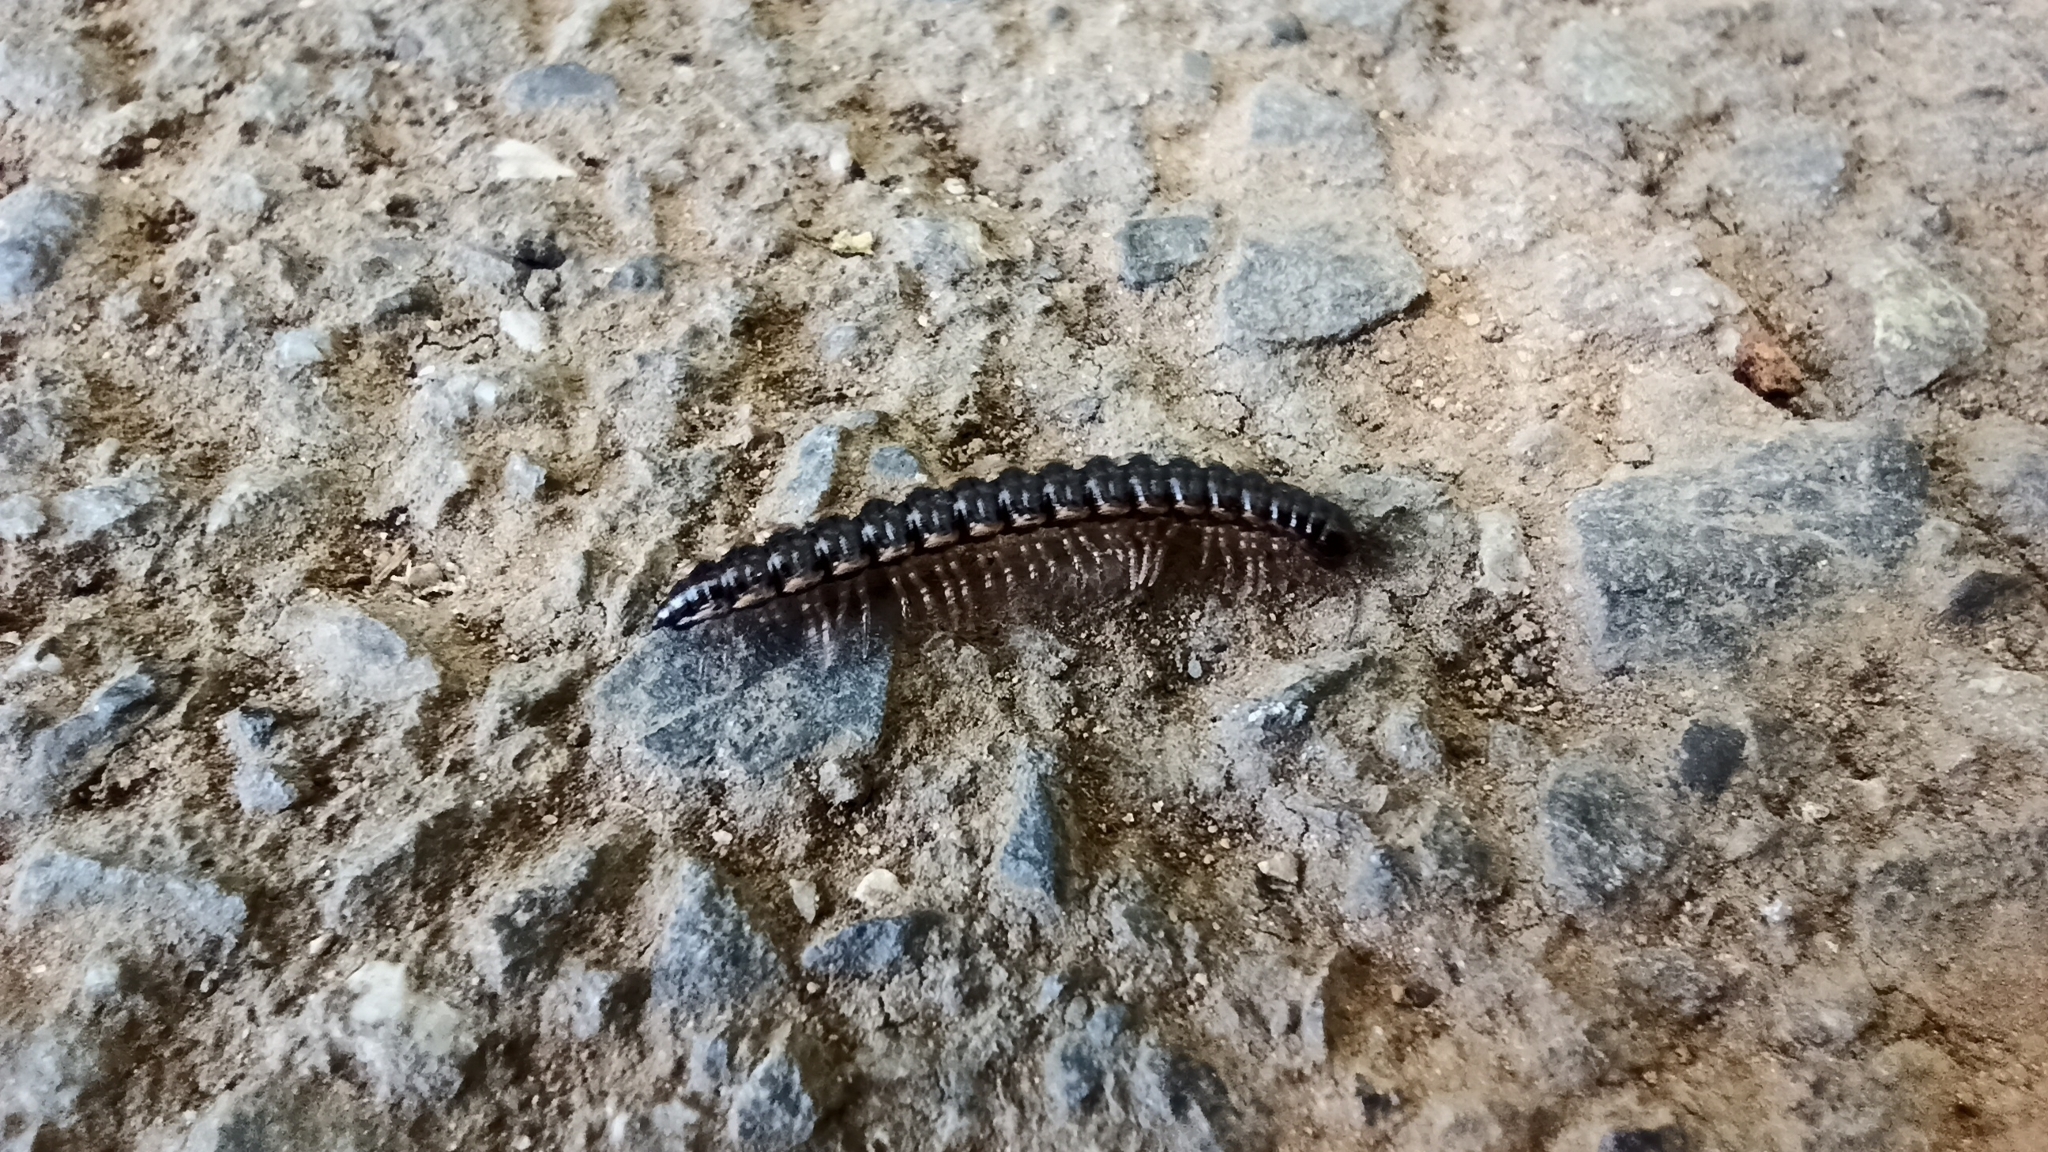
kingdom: Animalia
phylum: Arthropoda
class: Diplopoda
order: Polydesmida
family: Paradoxosomatidae
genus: Oxidus
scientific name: Oxidus gracilis
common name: Greenhouse millipede
